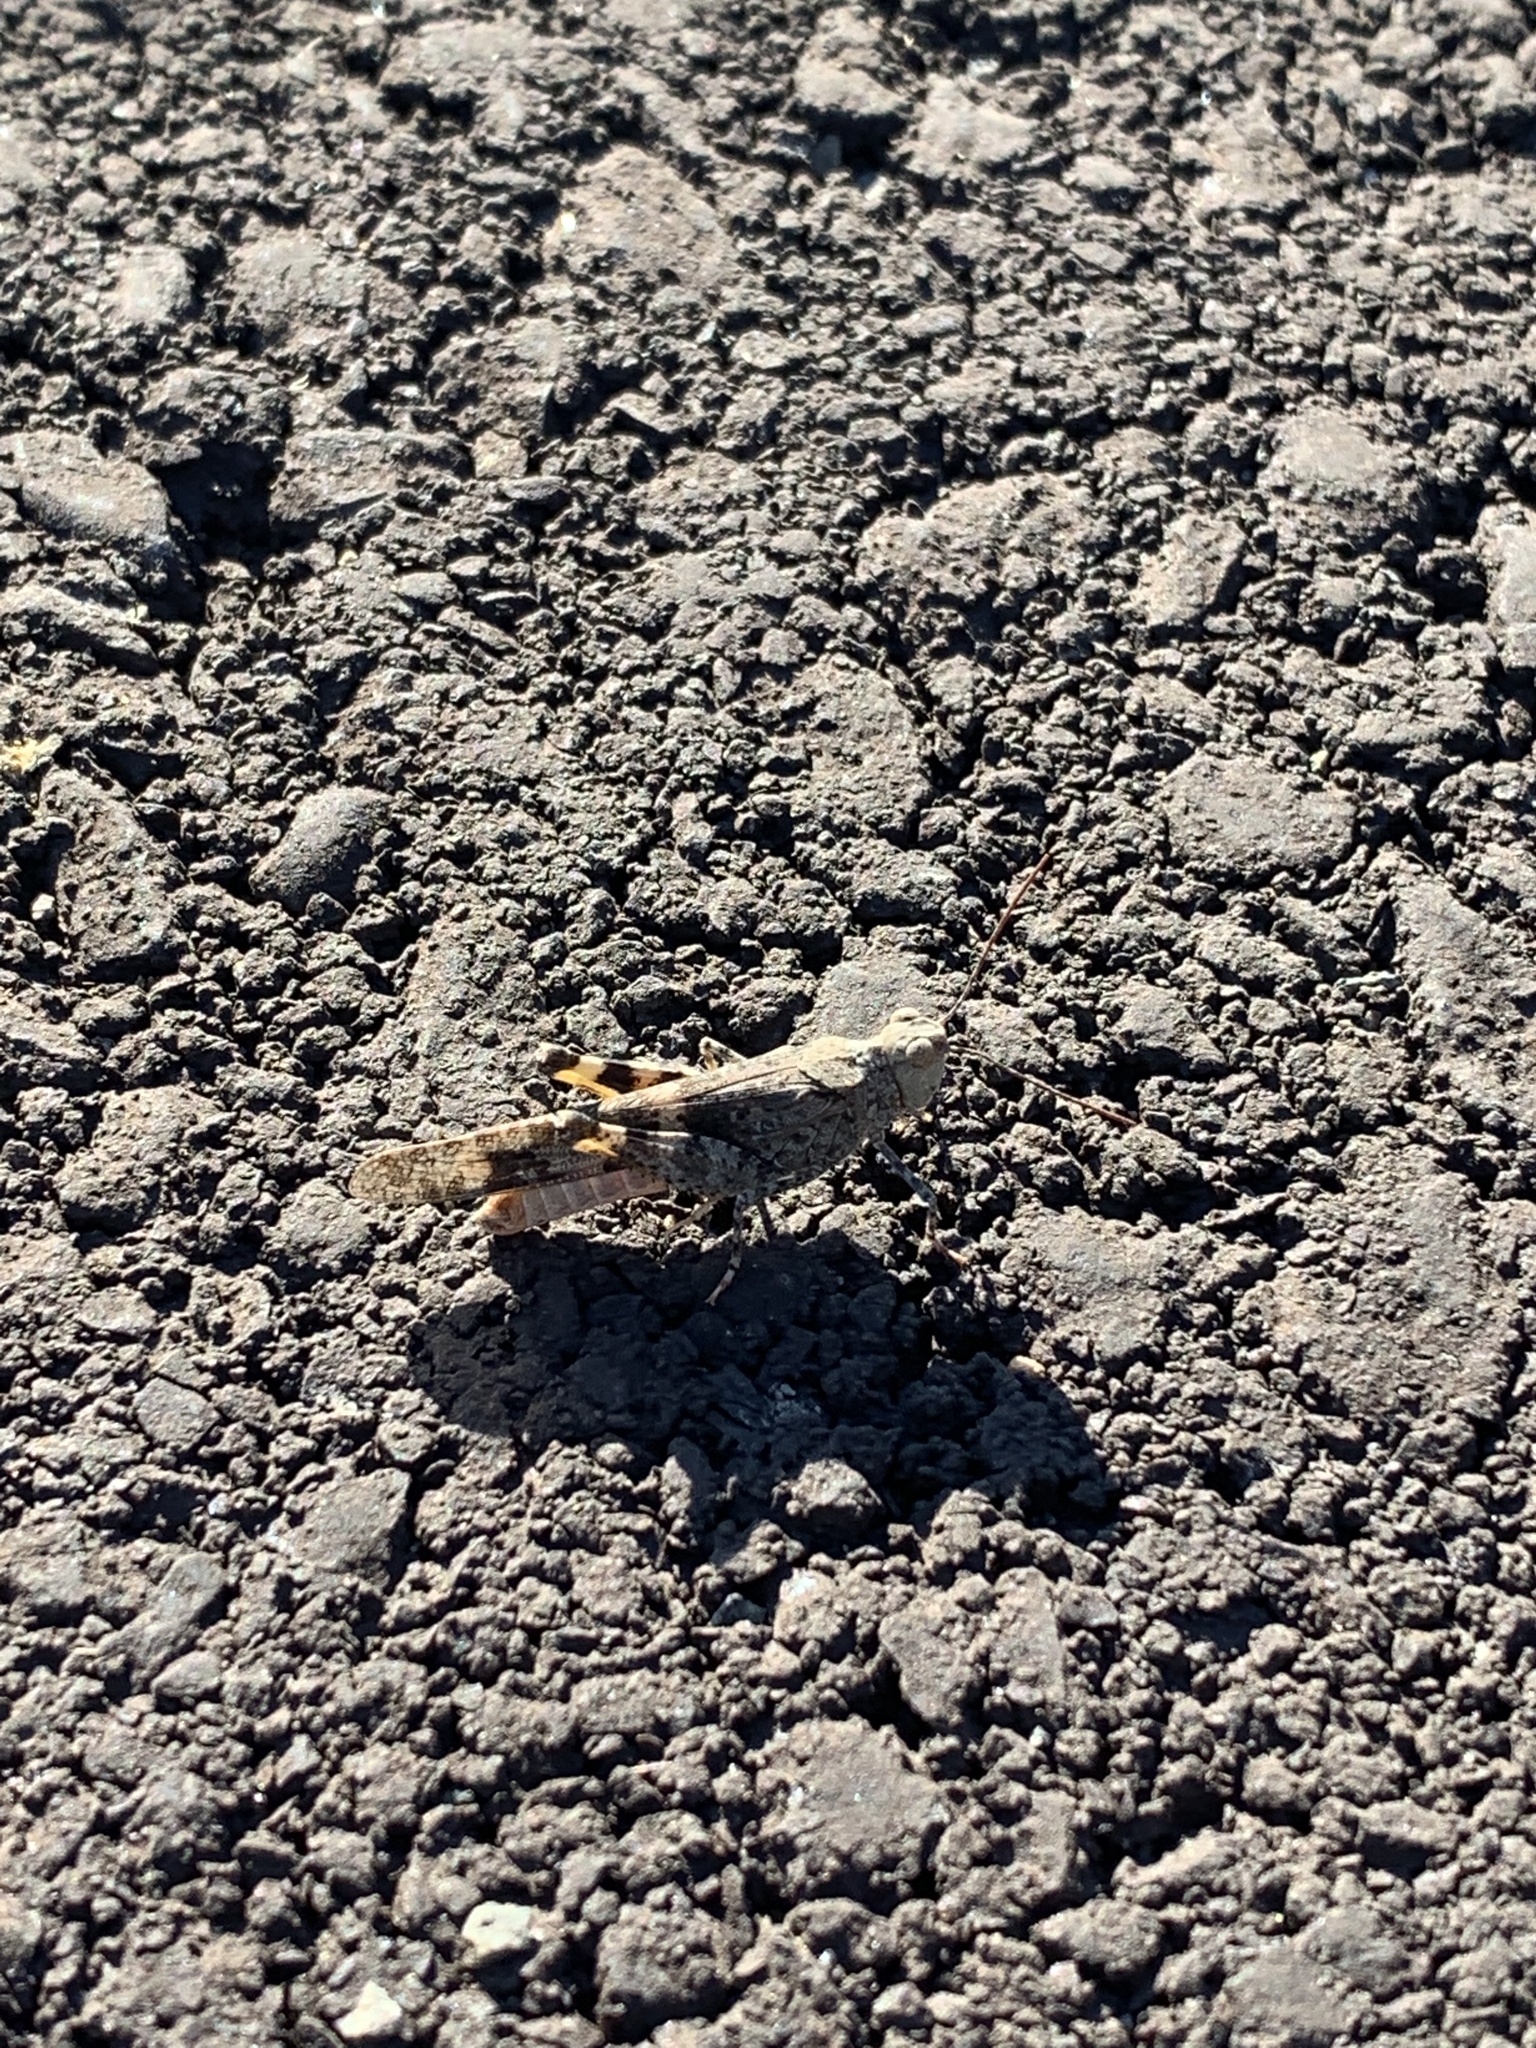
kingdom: Animalia
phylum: Arthropoda
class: Insecta
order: Orthoptera
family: Acrididae
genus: Trimerotropis
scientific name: Trimerotropis pallidipennis
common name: Pallid-winged grasshopper
